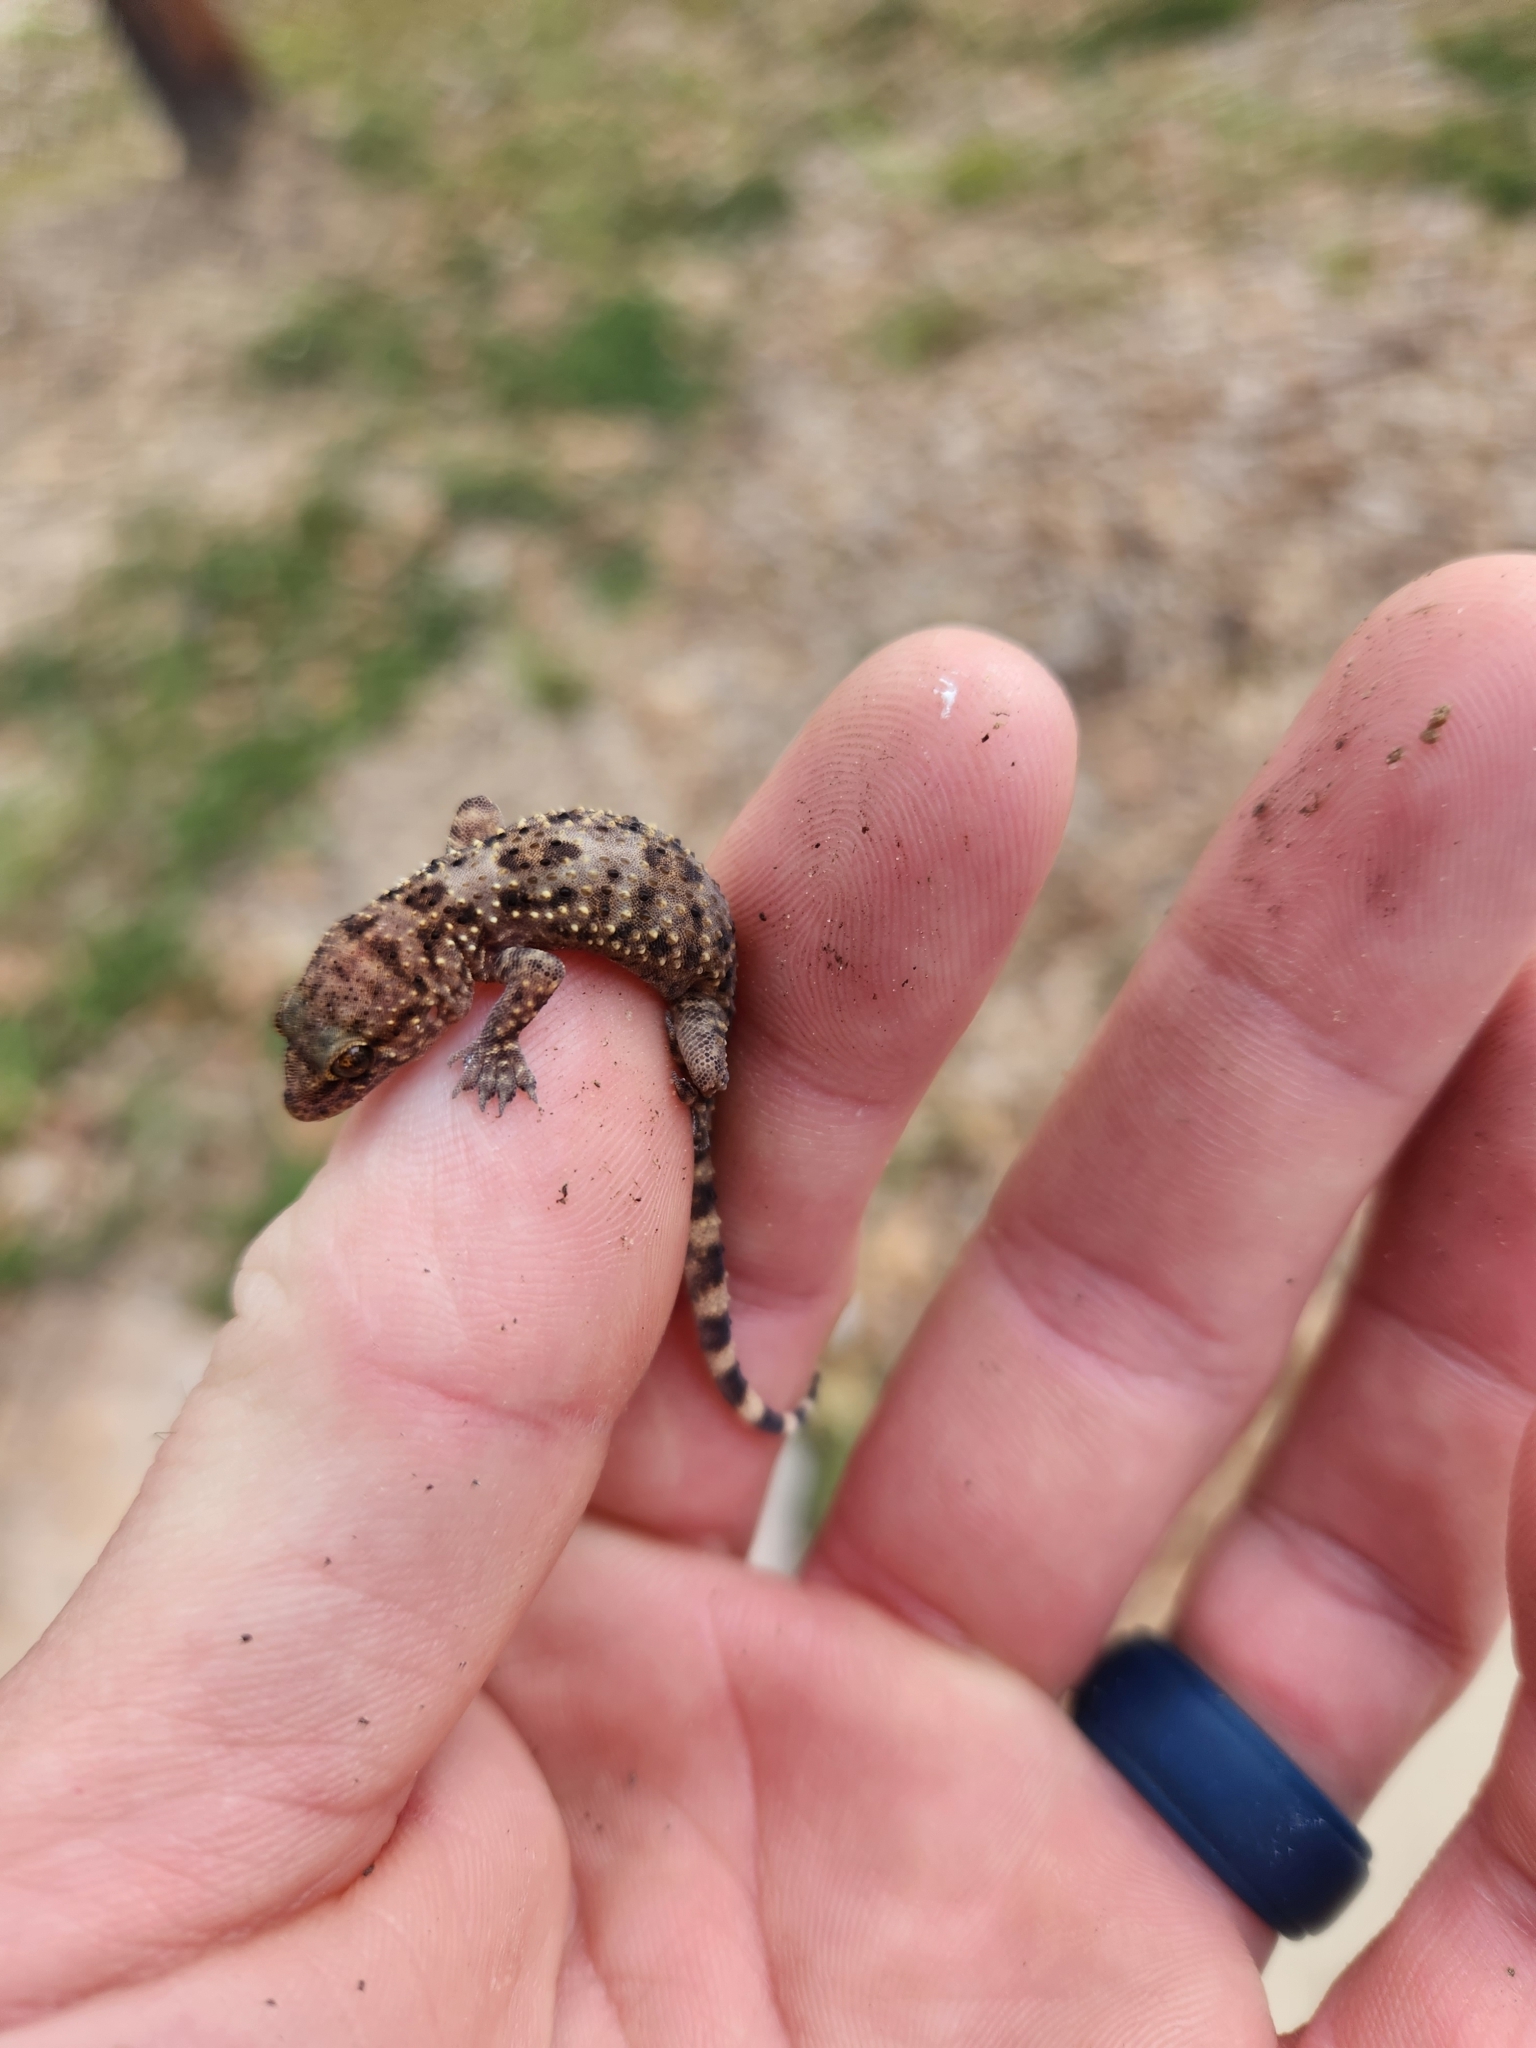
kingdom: Animalia
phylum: Chordata
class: Squamata
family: Gekkonidae
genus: Hemidactylus
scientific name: Hemidactylus turcicus
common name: Turkish gecko
